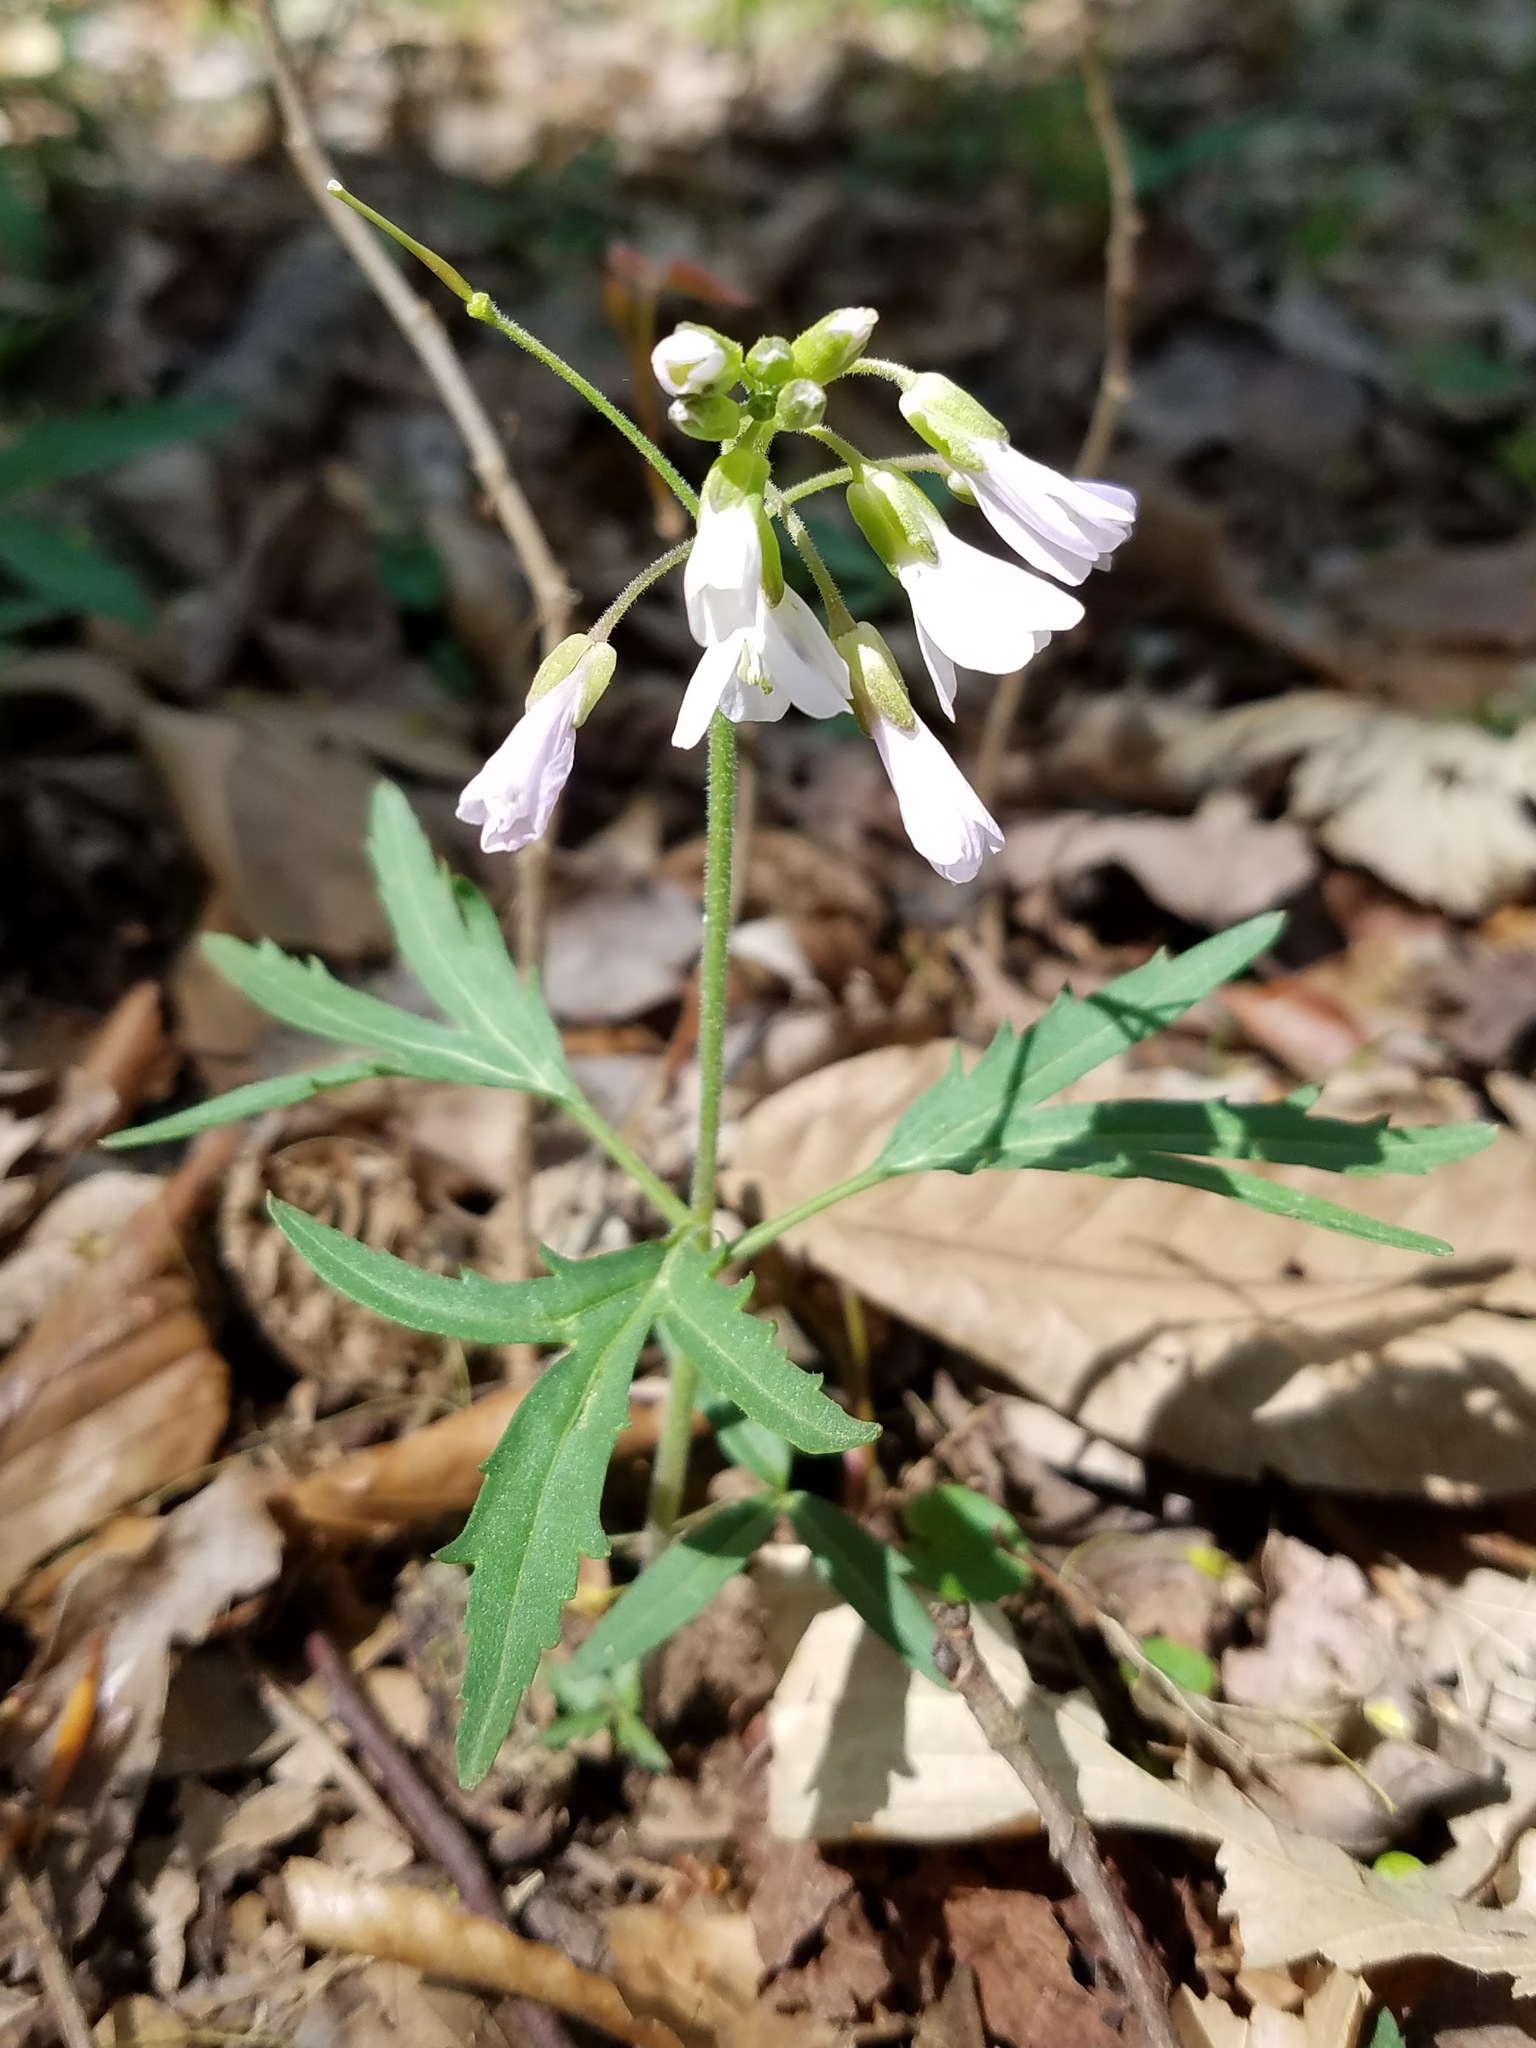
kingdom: Plantae
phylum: Tracheophyta
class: Magnoliopsida
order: Brassicales
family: Brassicaceae
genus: Cardamine
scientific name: Cardamine concatenata
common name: Cut-leaf toothcup
